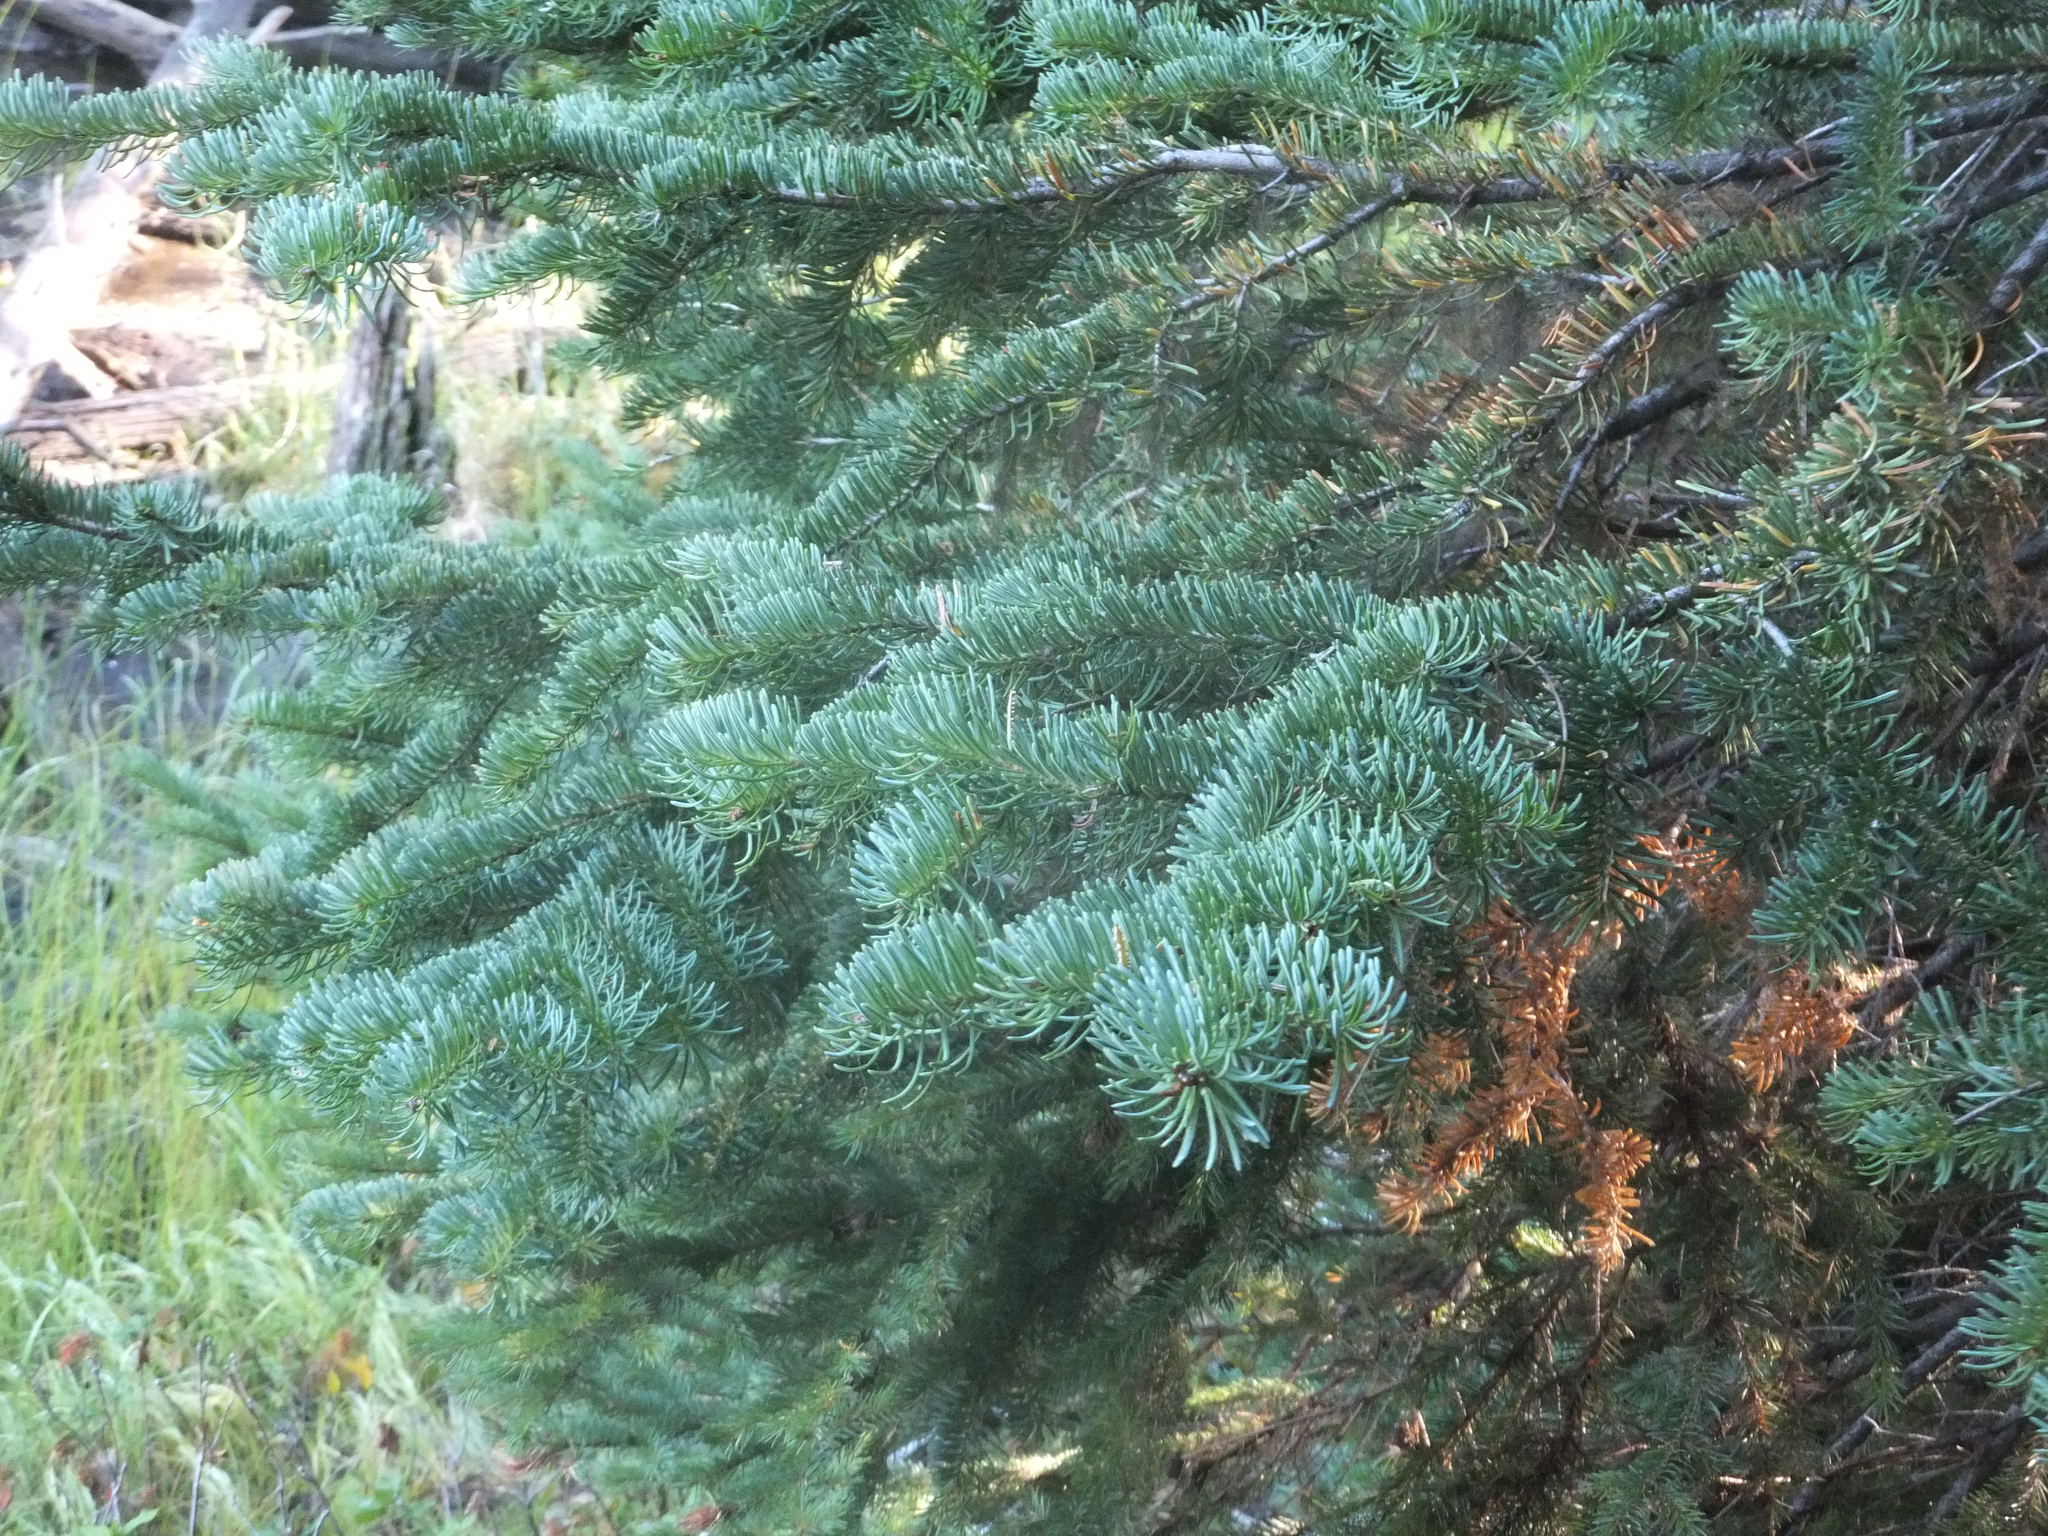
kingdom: Plantae
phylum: Tracheophyta
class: Pinopsida
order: Pinales
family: Pinaceae
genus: Abies
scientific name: Abies lasiocarpa
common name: Subalpine fir
